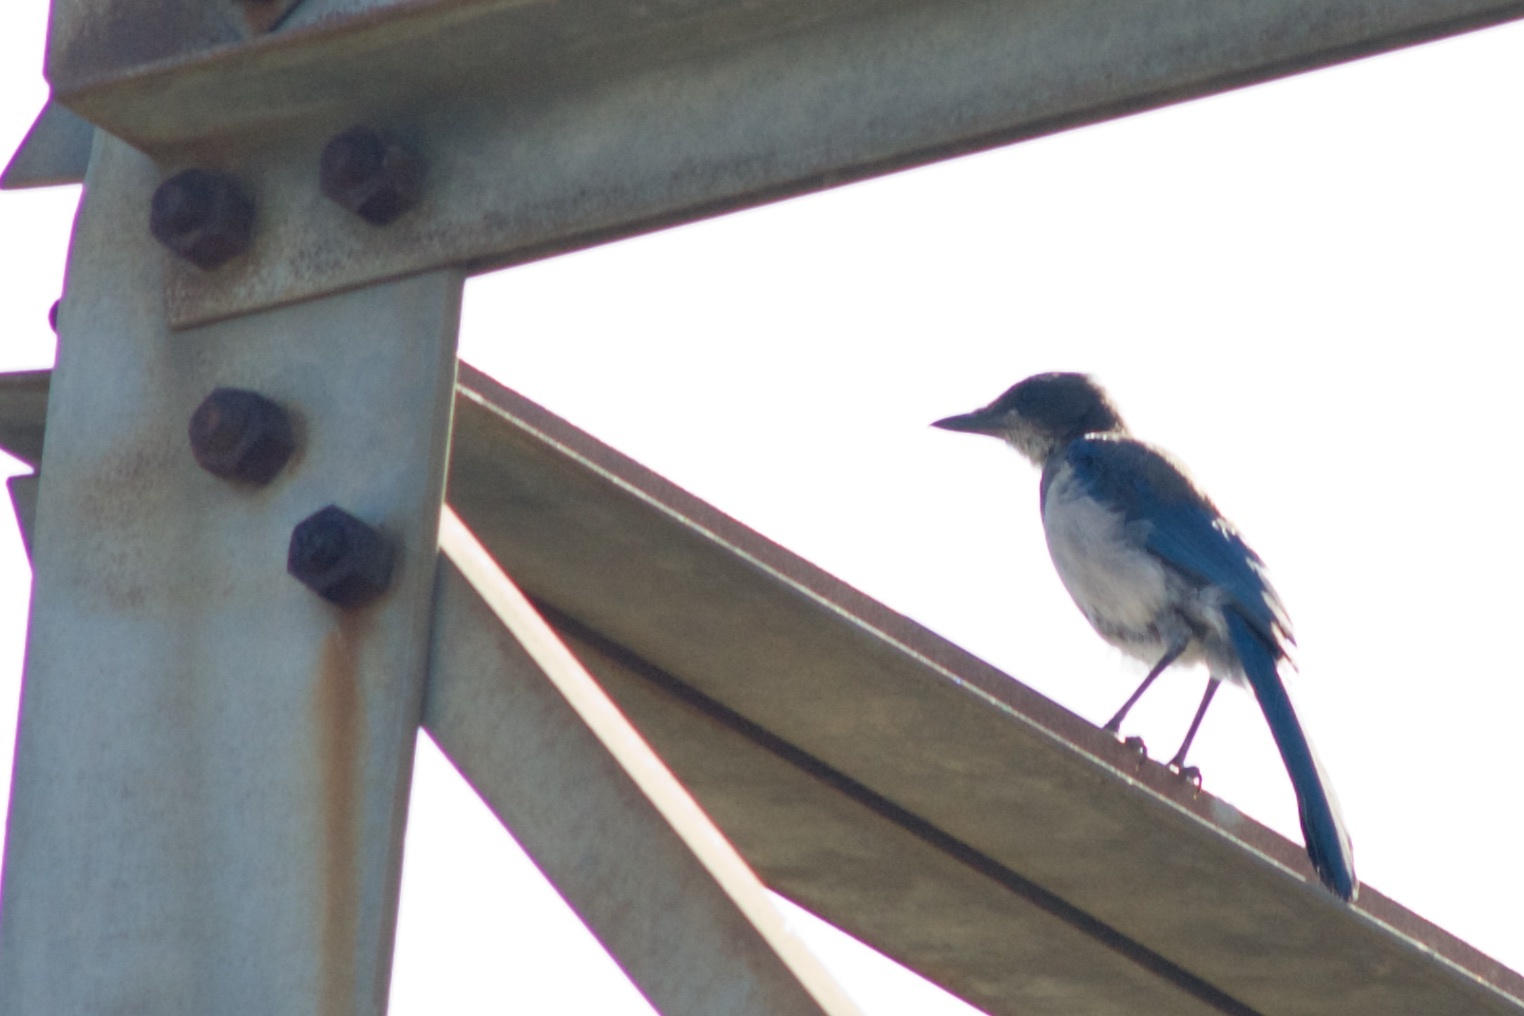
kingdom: Animalia
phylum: Chordata
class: Aves
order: Passeriformes
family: Corvidae
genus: Aphelocoma
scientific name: Aphelocoma californica
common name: California scrub-jay
